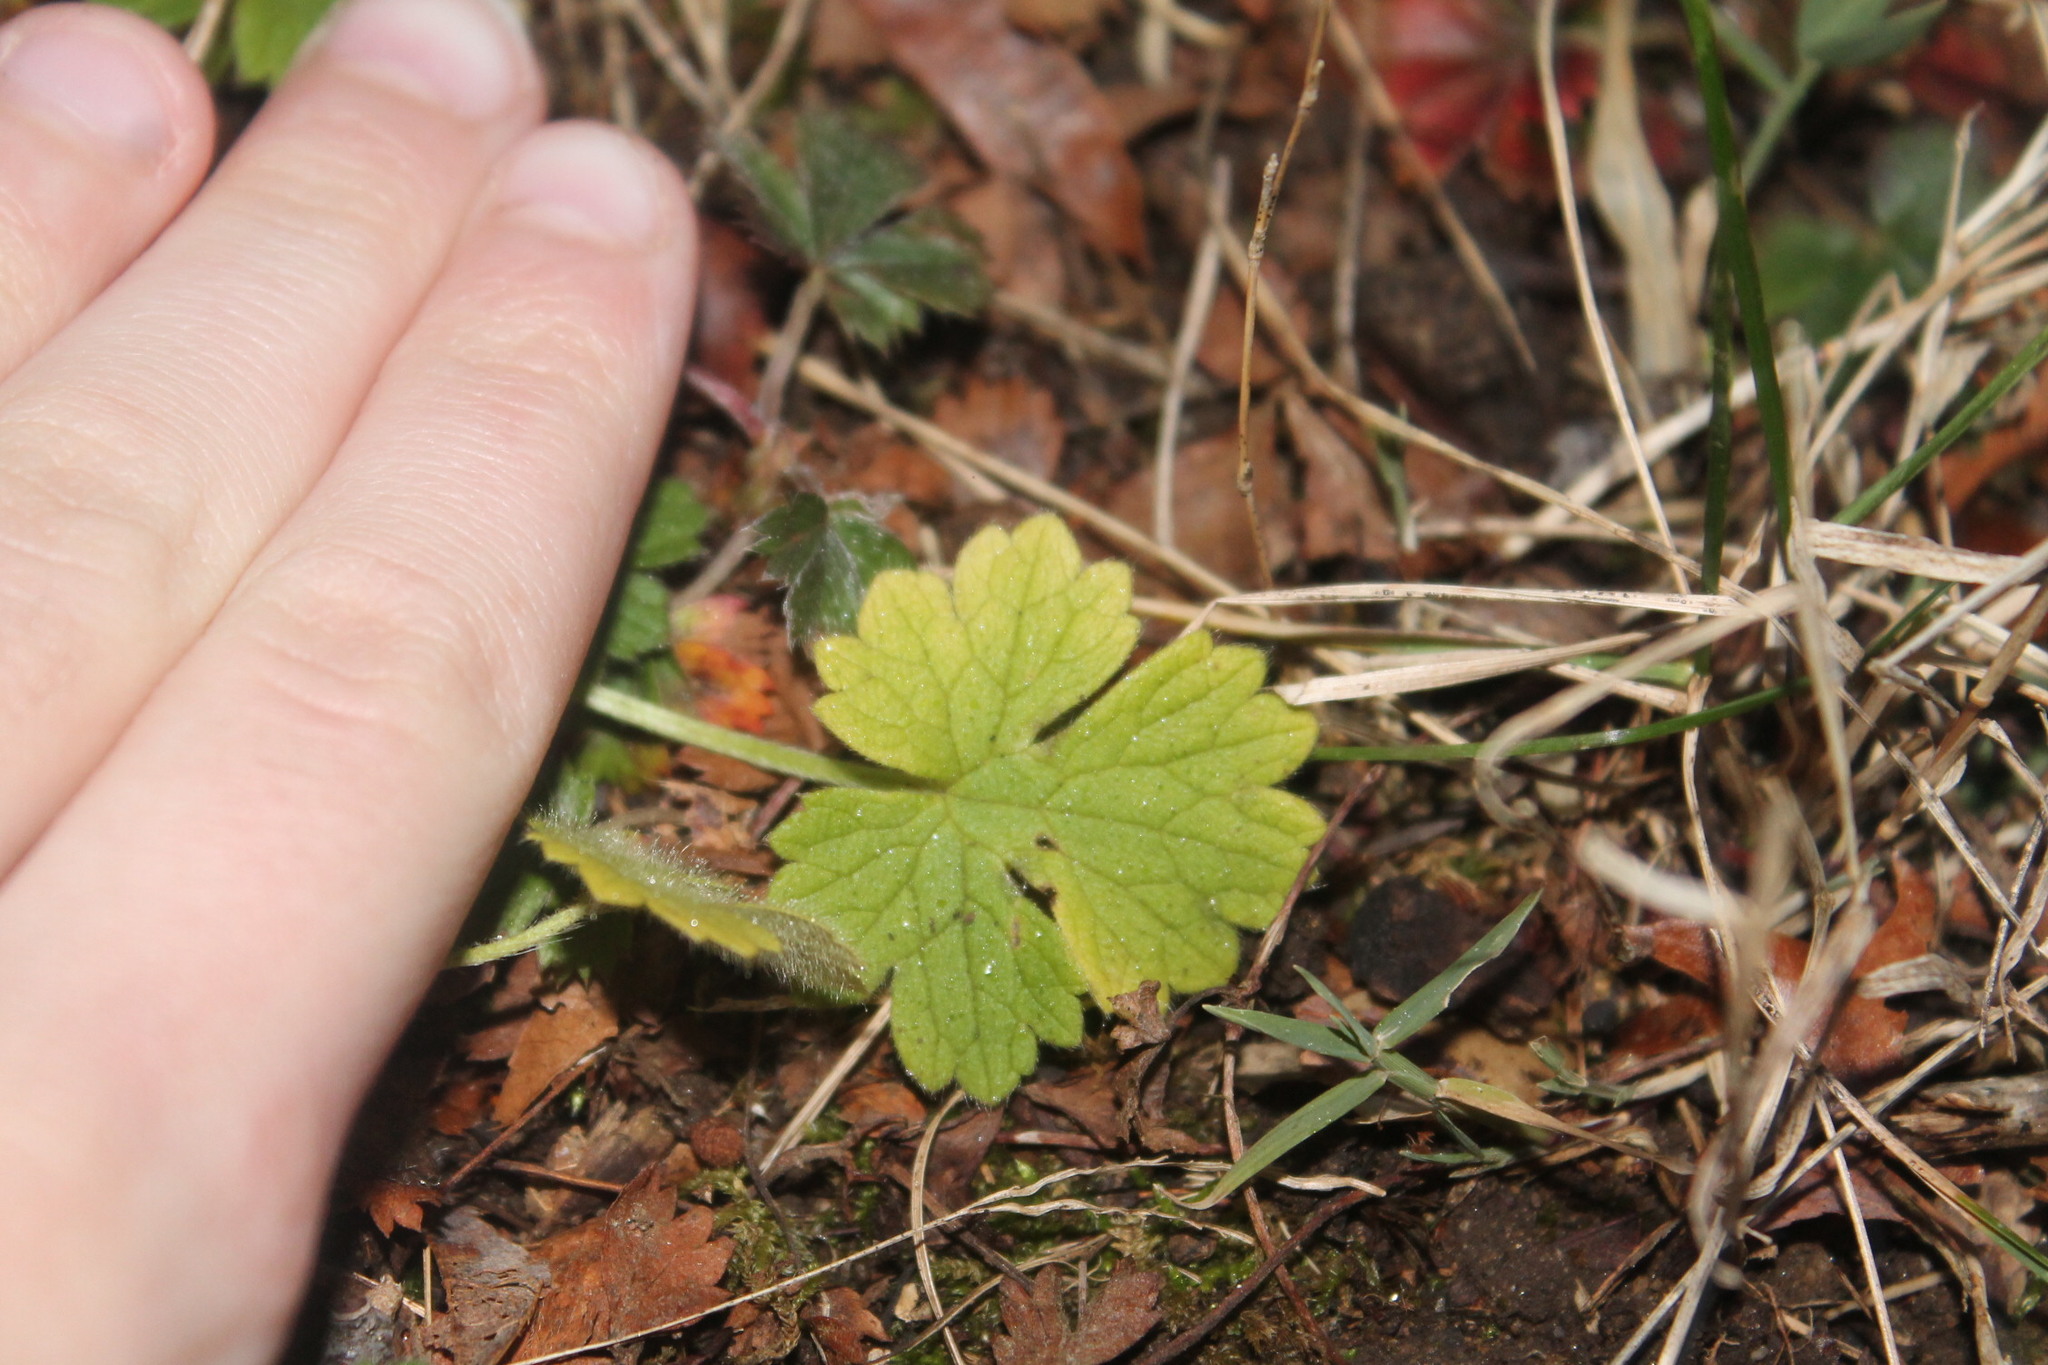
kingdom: Plantae
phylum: Tracheophyta
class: Magnoliopsida
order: Ranunculales
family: Ranunculaceae
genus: Ranunculus
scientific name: Ranunculus bulbosus
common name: Bulbous buttercup
